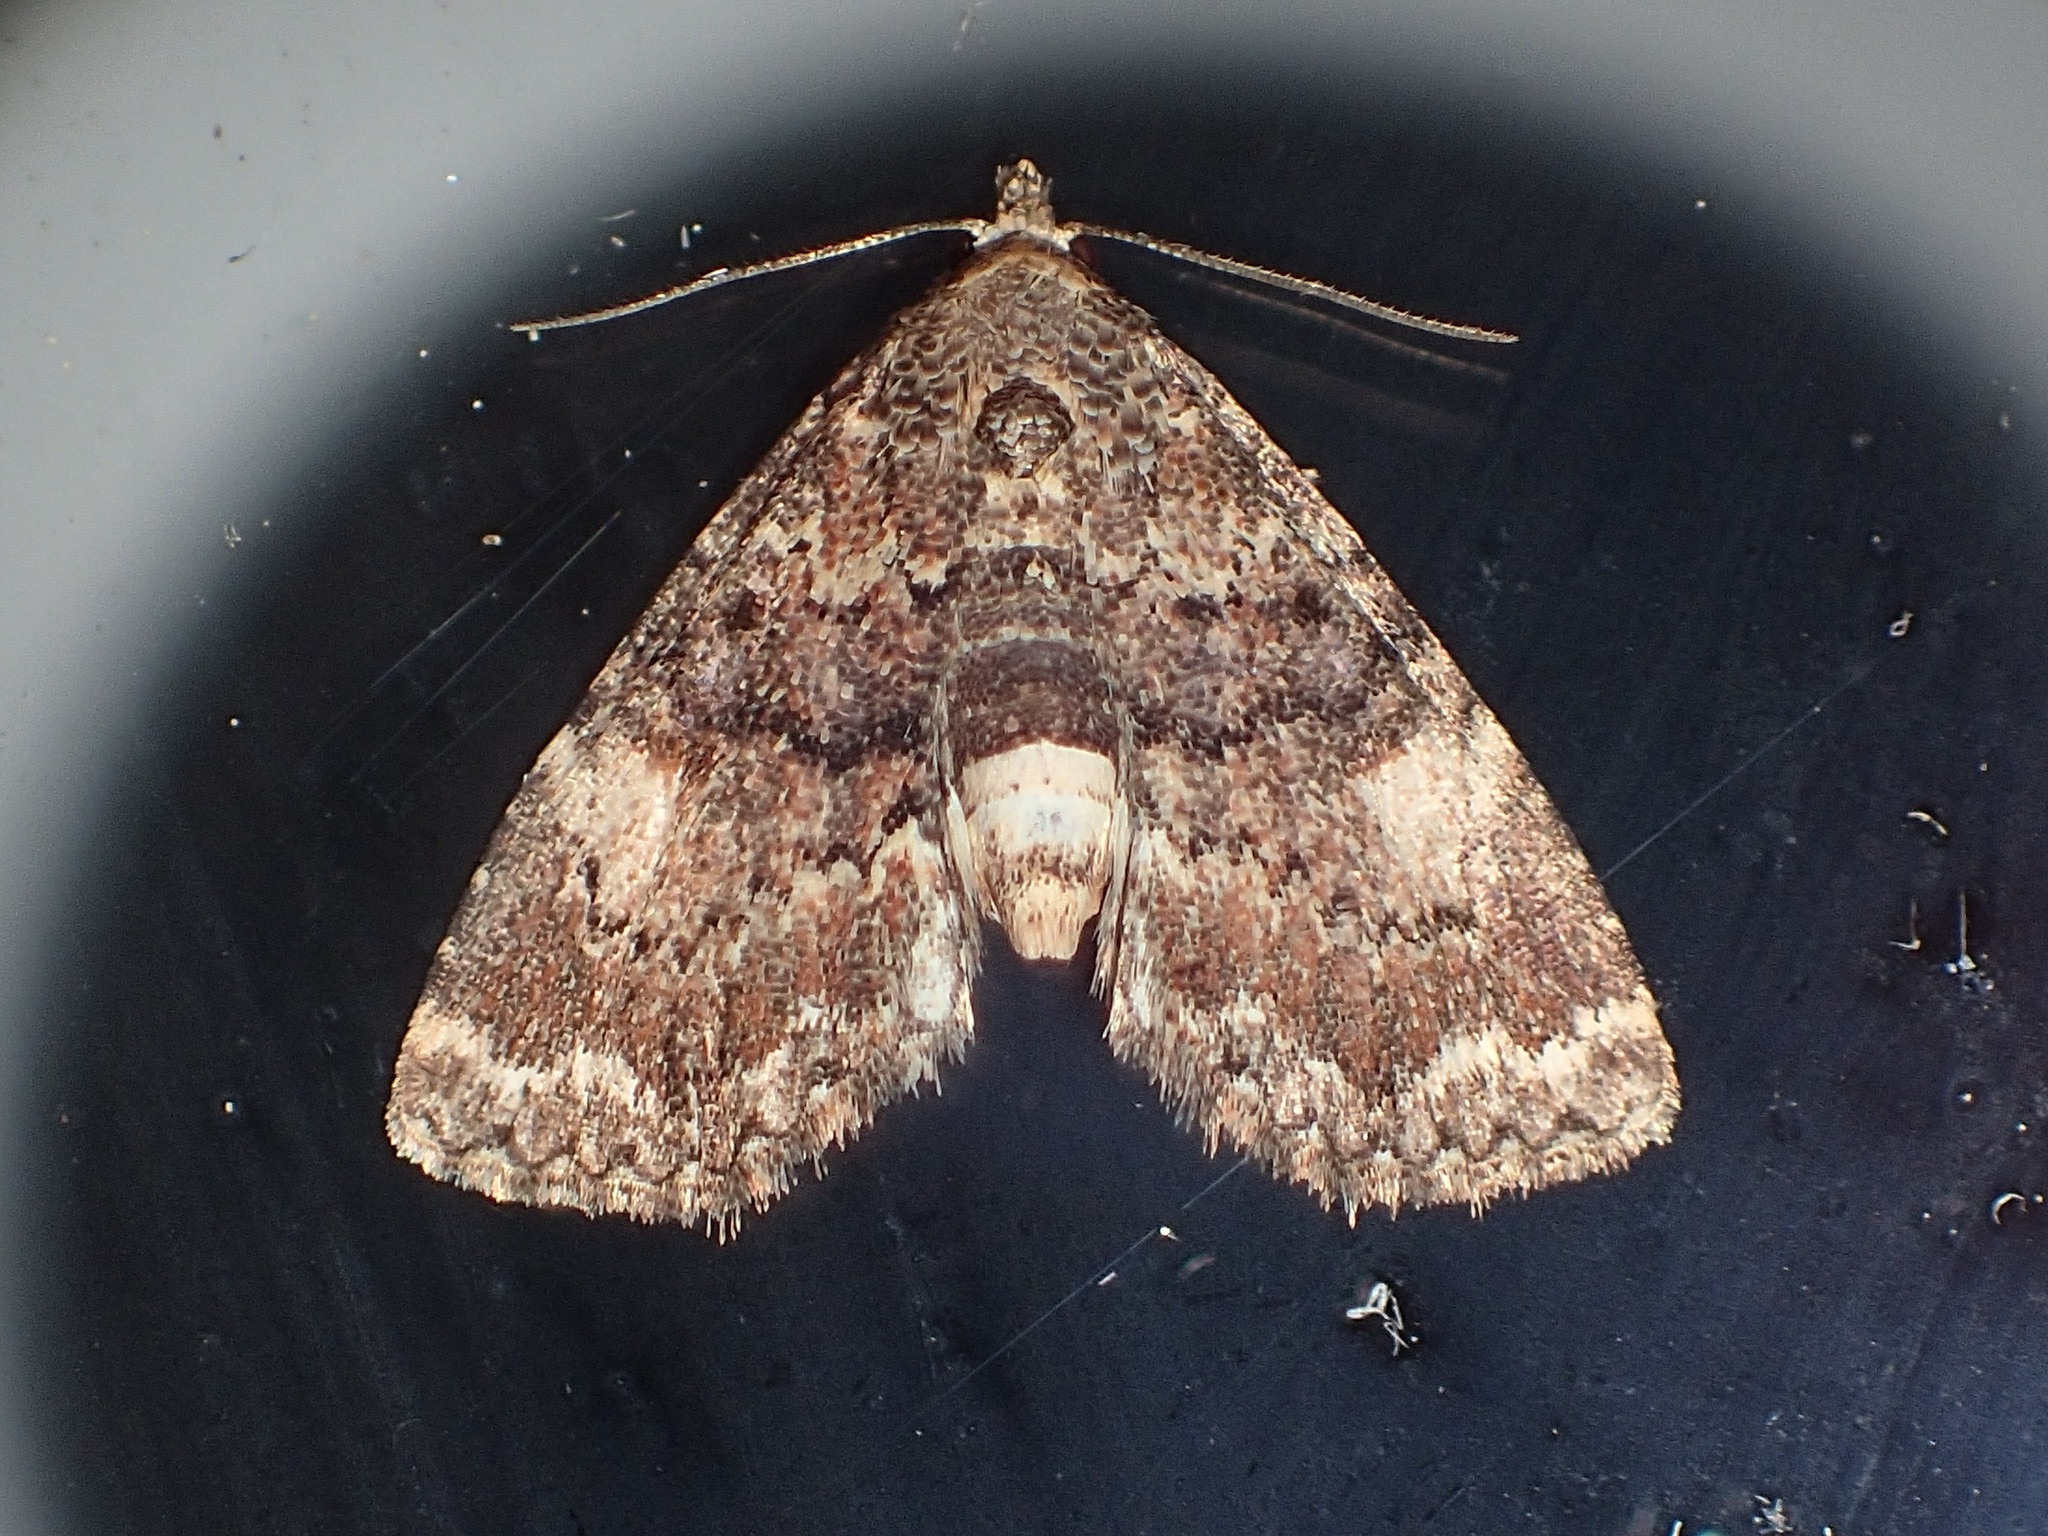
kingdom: Animalia
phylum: Arthropoda
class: Insecta
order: Lepidoptera
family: Erebidae
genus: Metalectra
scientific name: Metalectra richardsi
